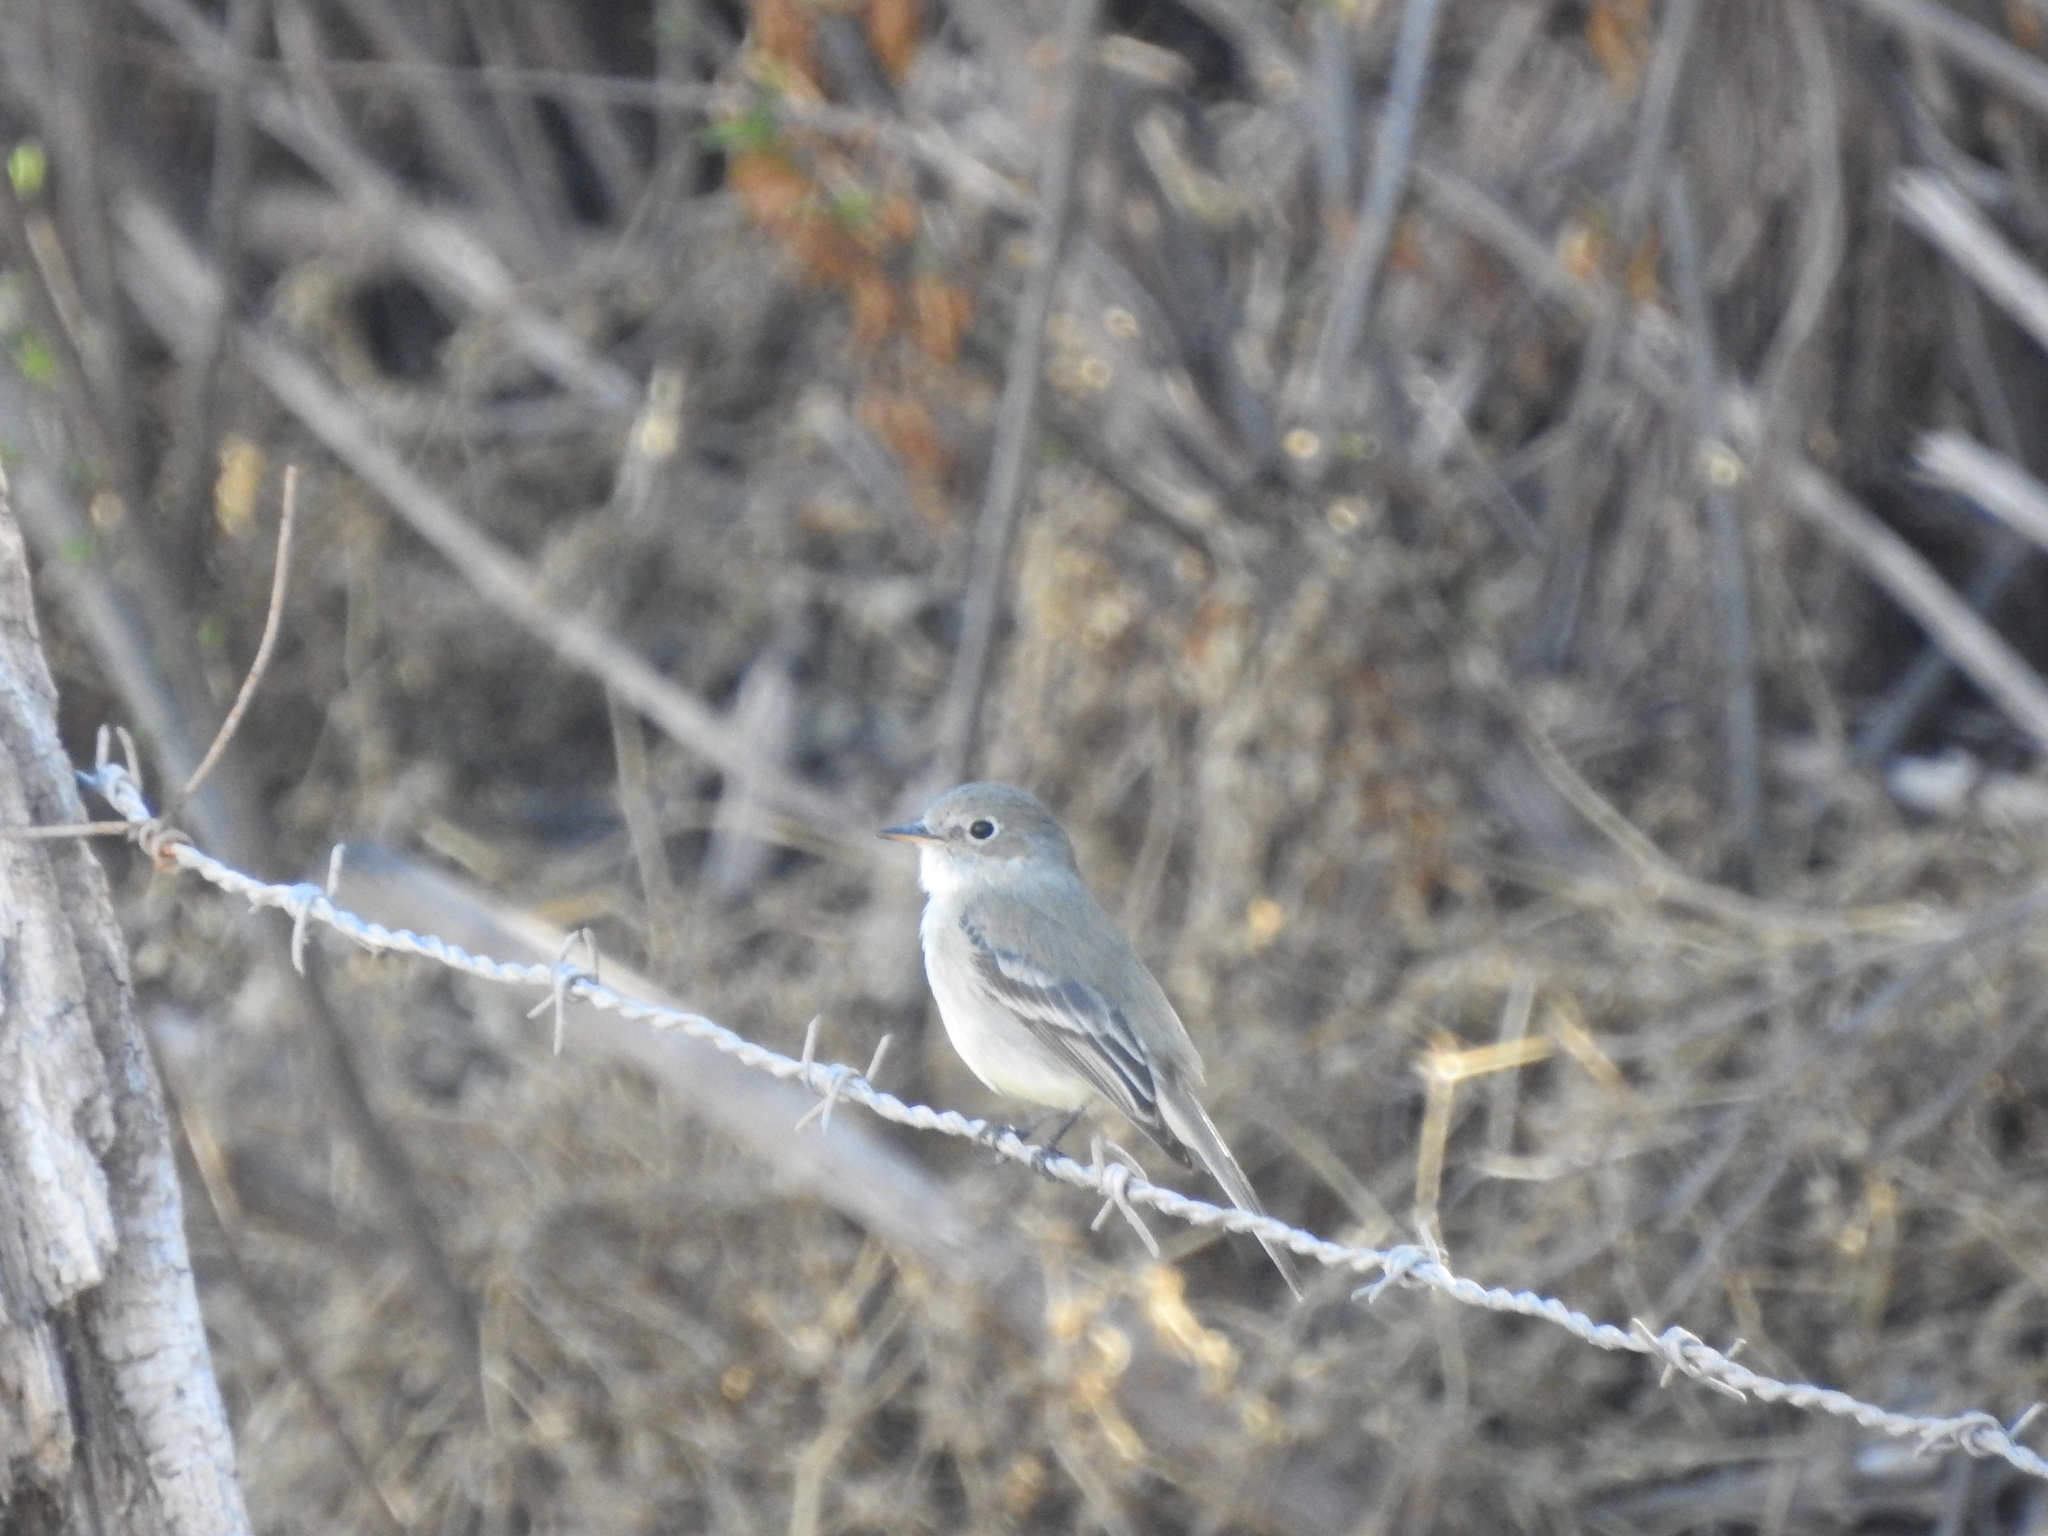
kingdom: Animalia
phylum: Chordata
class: Aves
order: Passeriformes
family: Tyrannidae
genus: Empidonax
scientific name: Empidonax wrightii
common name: Gray flycatcher
